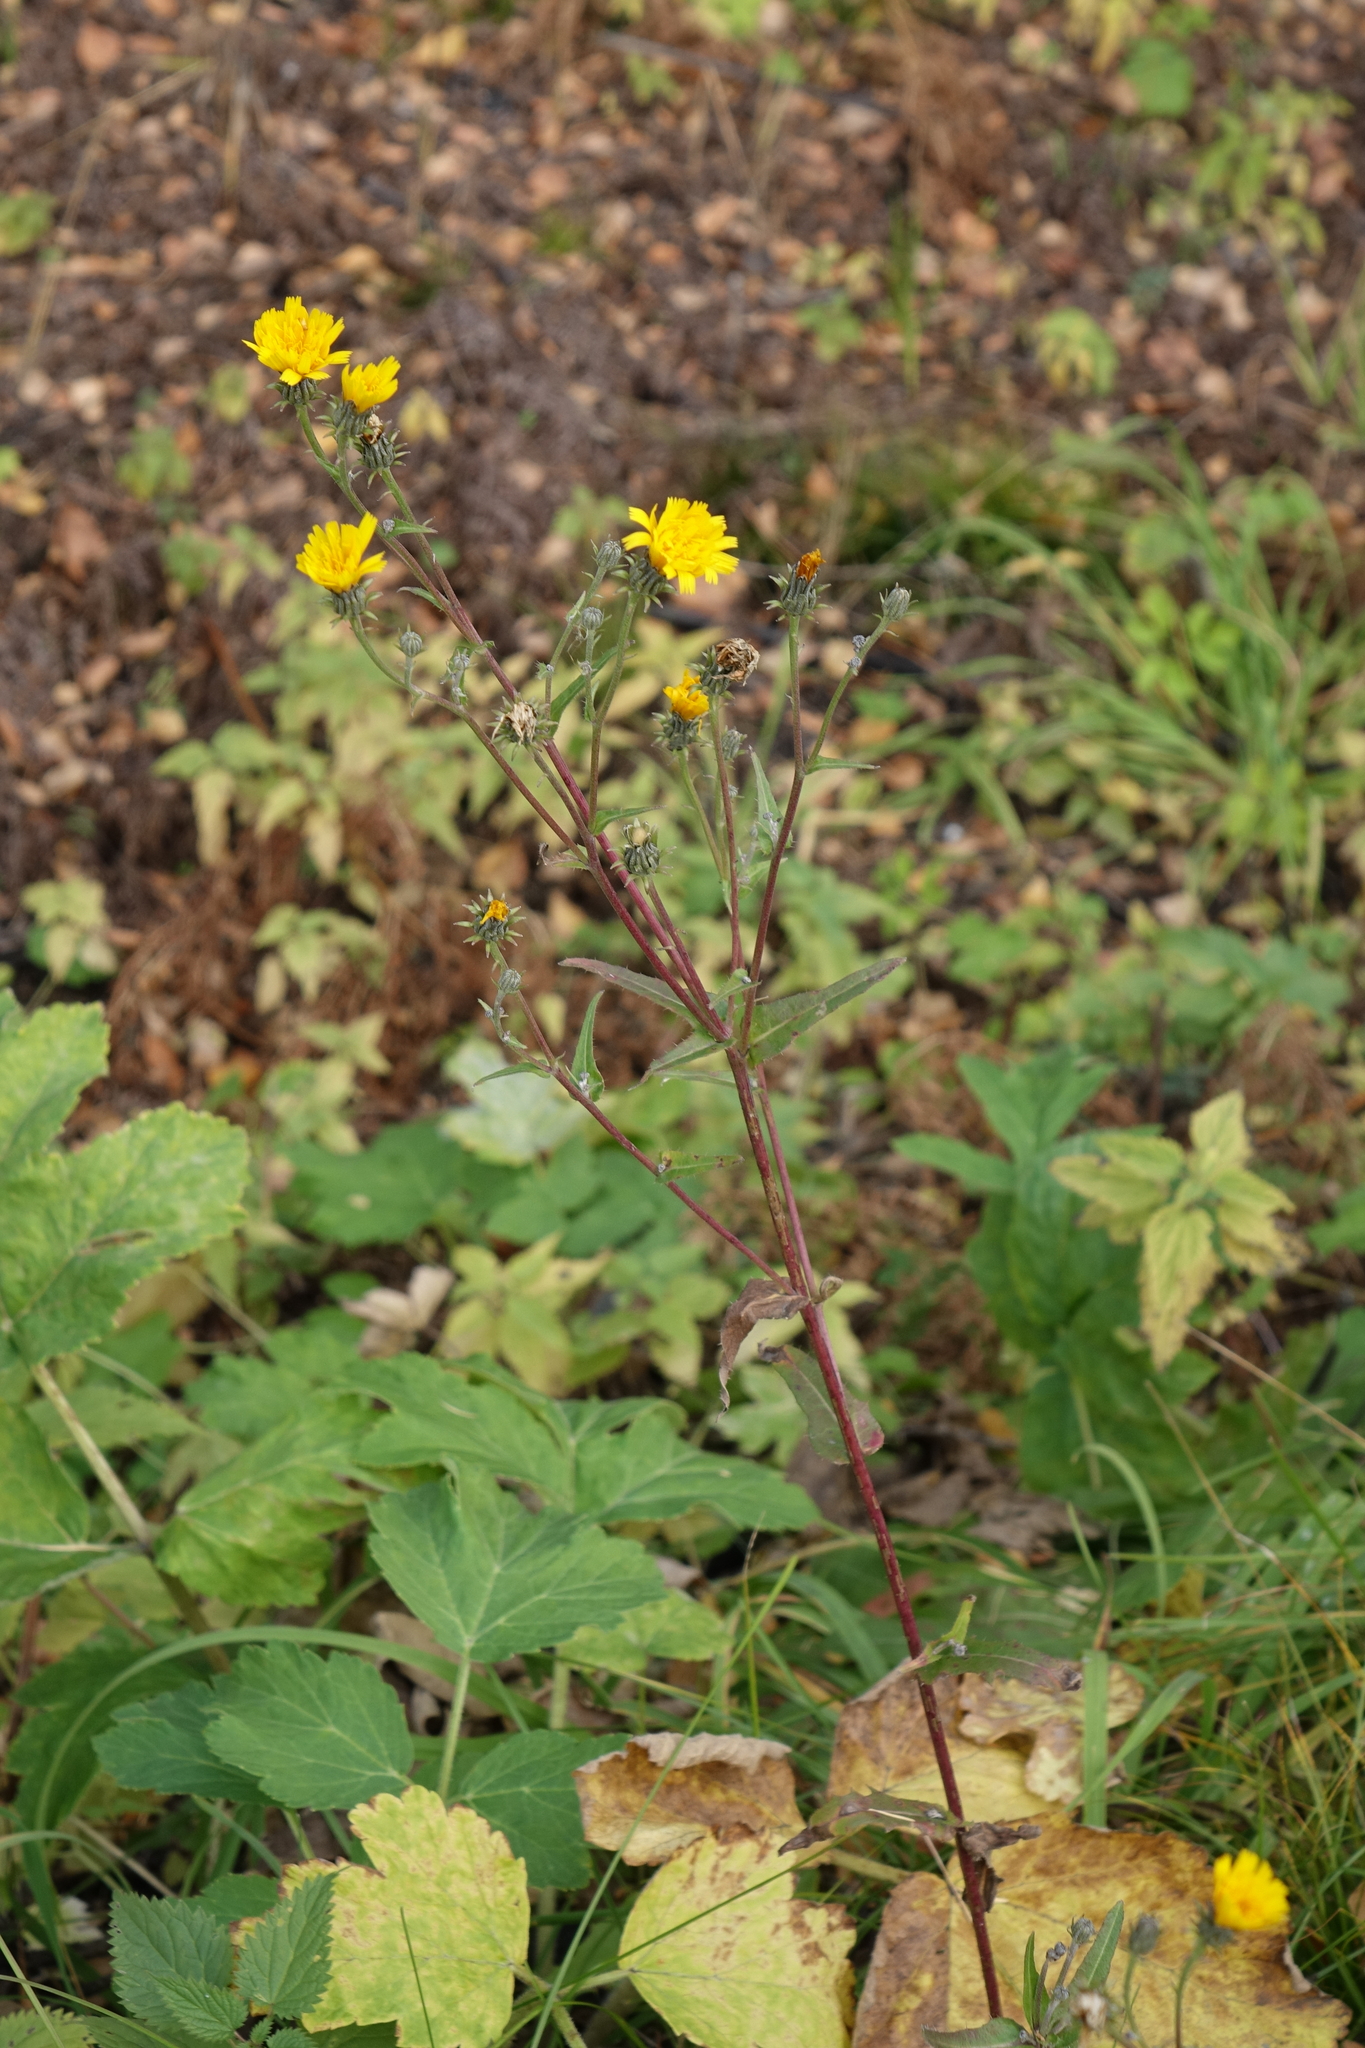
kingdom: Plantae
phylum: Tracheophyta
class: Magnoliopsida
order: Asterales
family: Asteraceae
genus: Picris
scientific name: Picris hieracioides
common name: Hawkweed oxtongue
